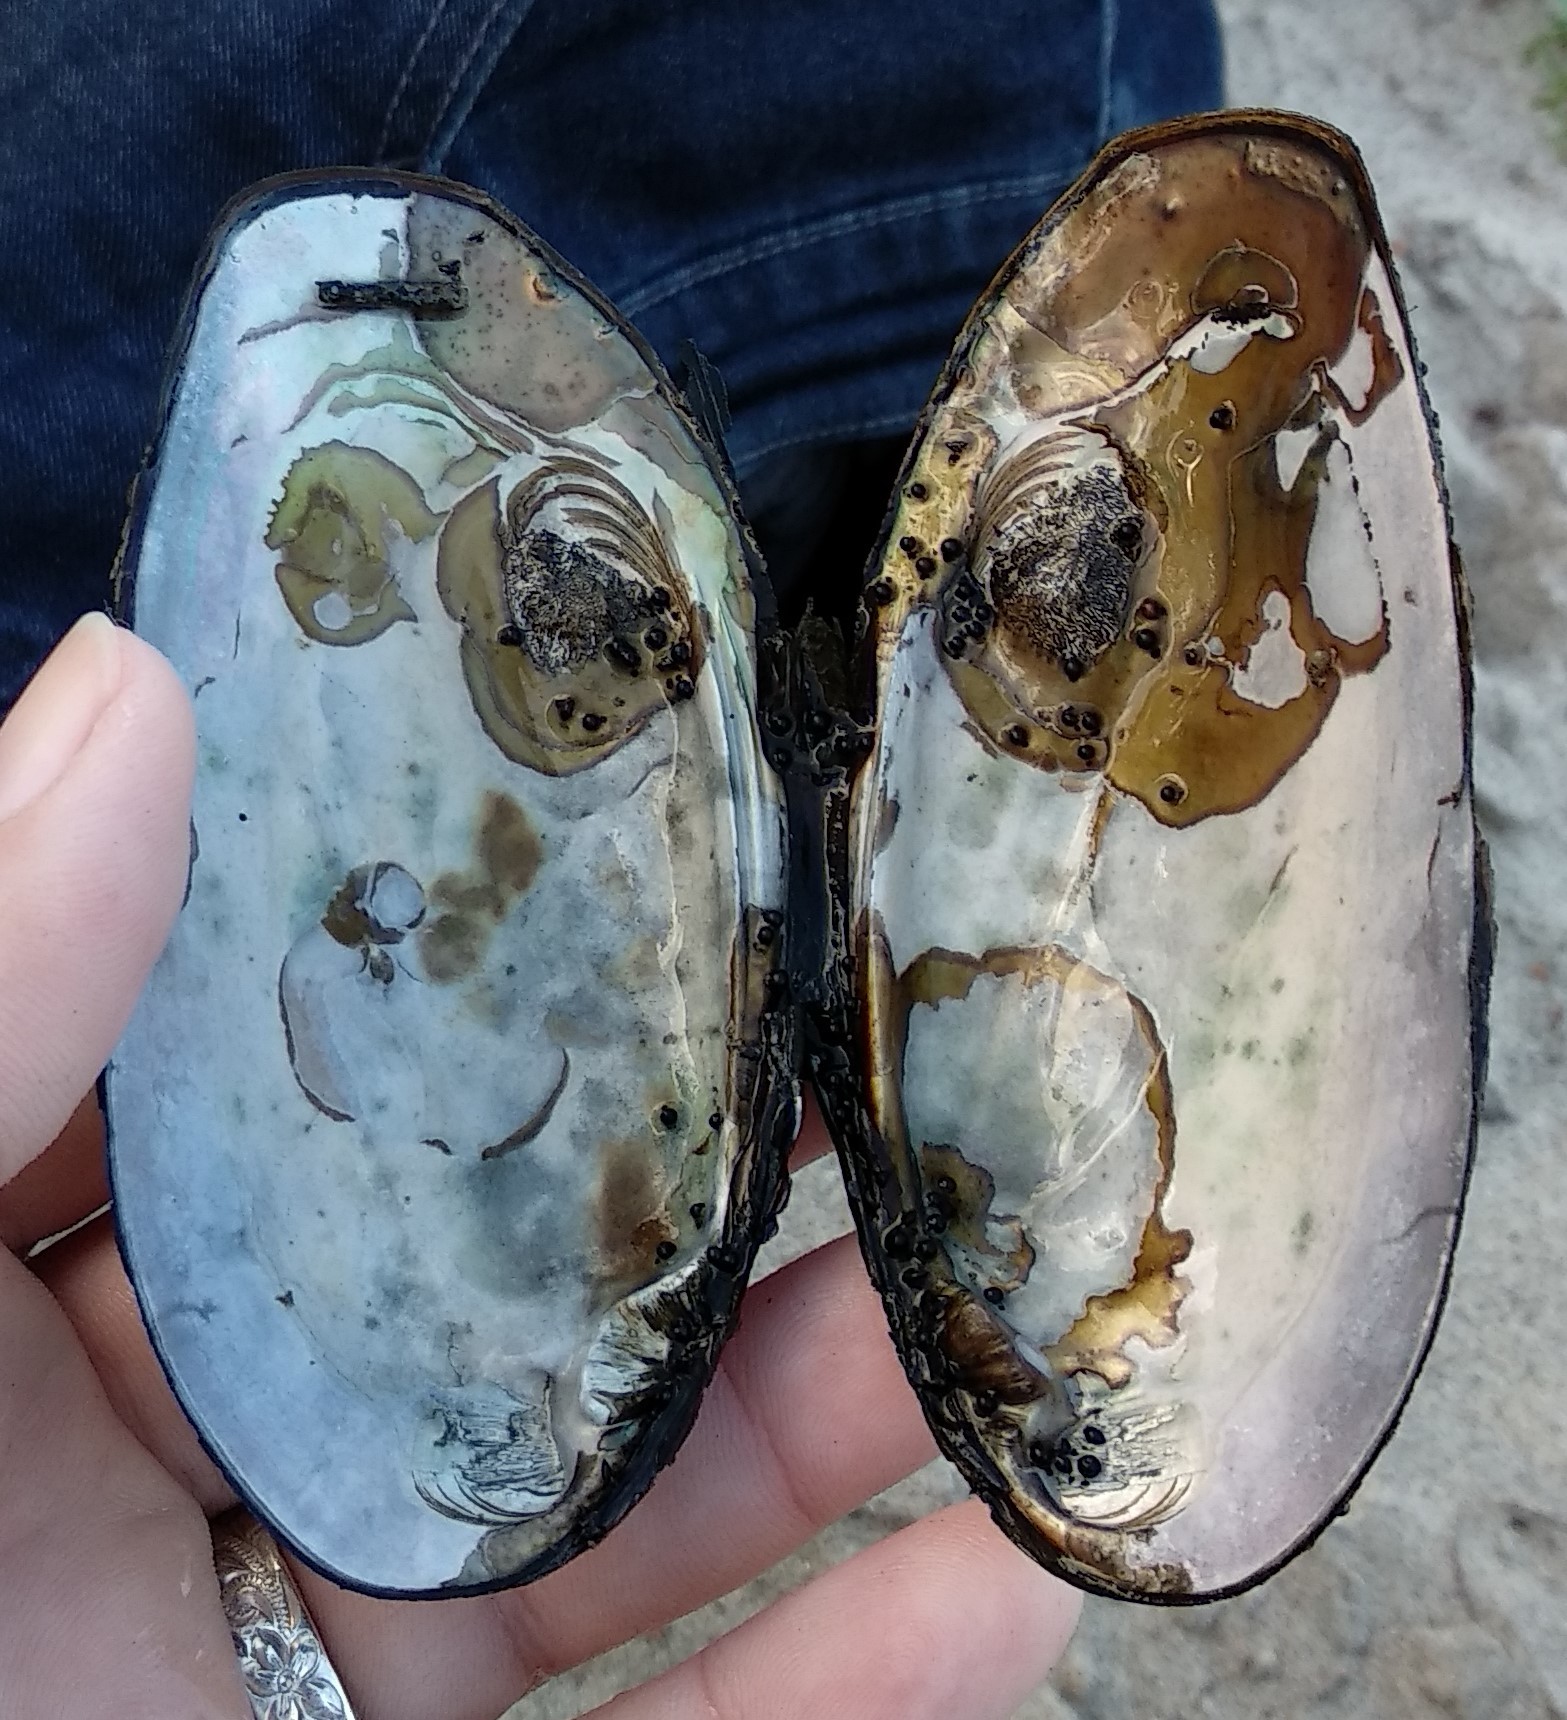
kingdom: Animalia
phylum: Mollusca
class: Bivalvia
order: Unionida
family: Unionidae
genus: Elliptio
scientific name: Elliptio complanata
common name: Eastern elliptio
